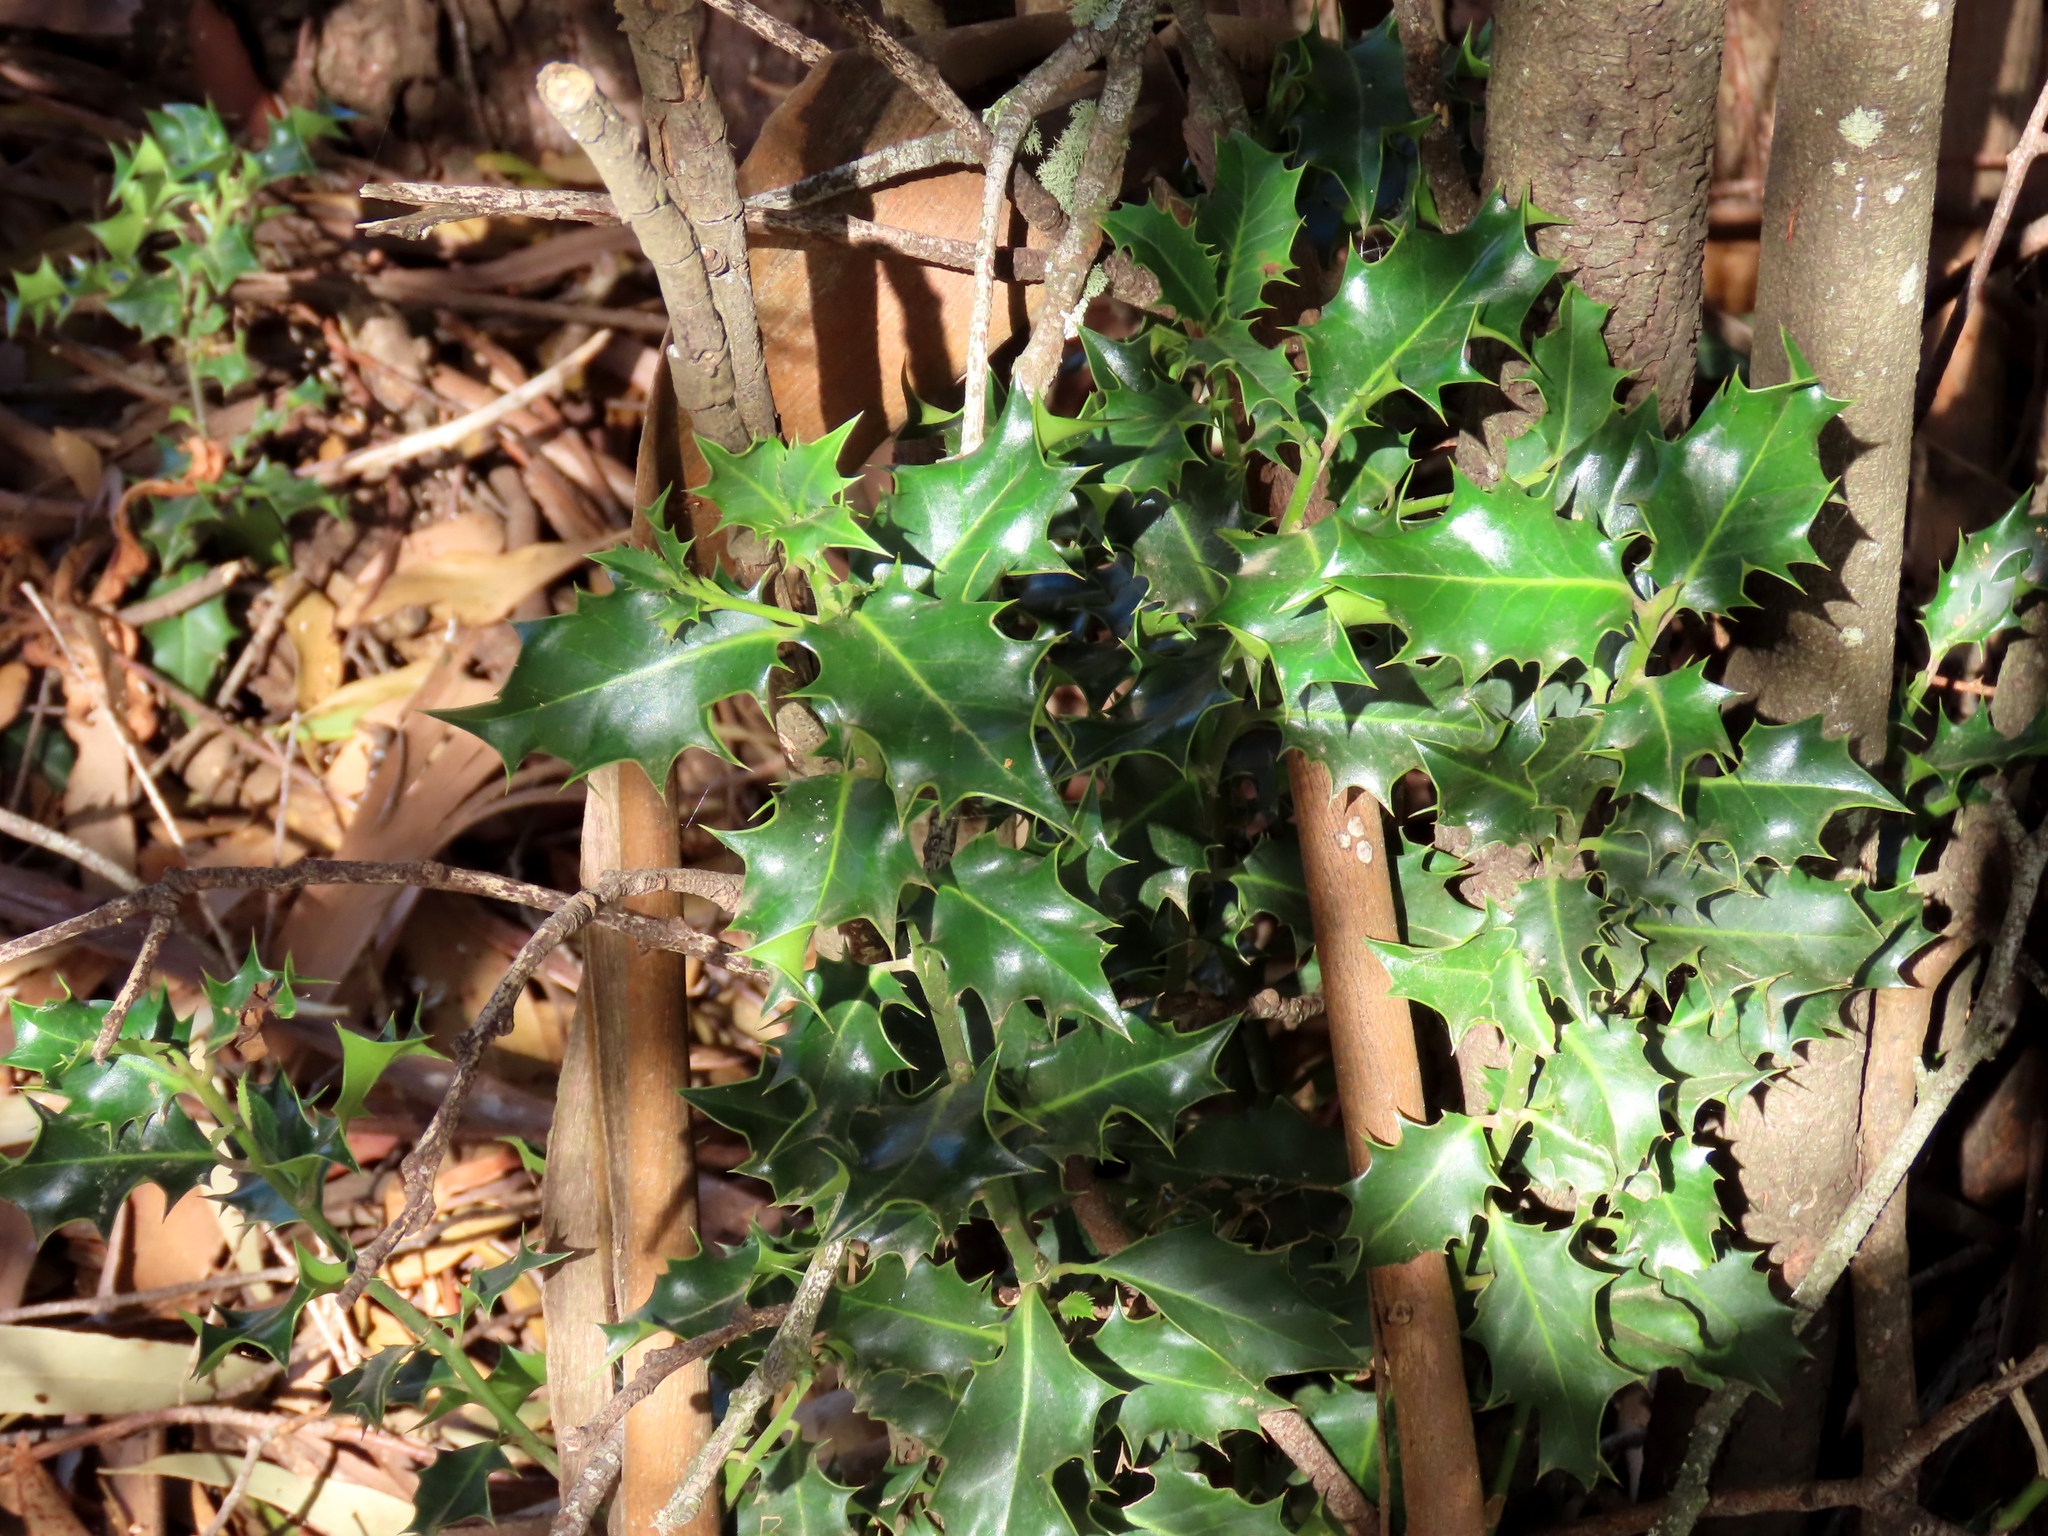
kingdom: Plantae
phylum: Tracheophyta
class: Magnoliopsida
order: Aquifoliales
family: Aquifoliaceae
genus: Ilex
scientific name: Ilex aquifolium
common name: English holly
